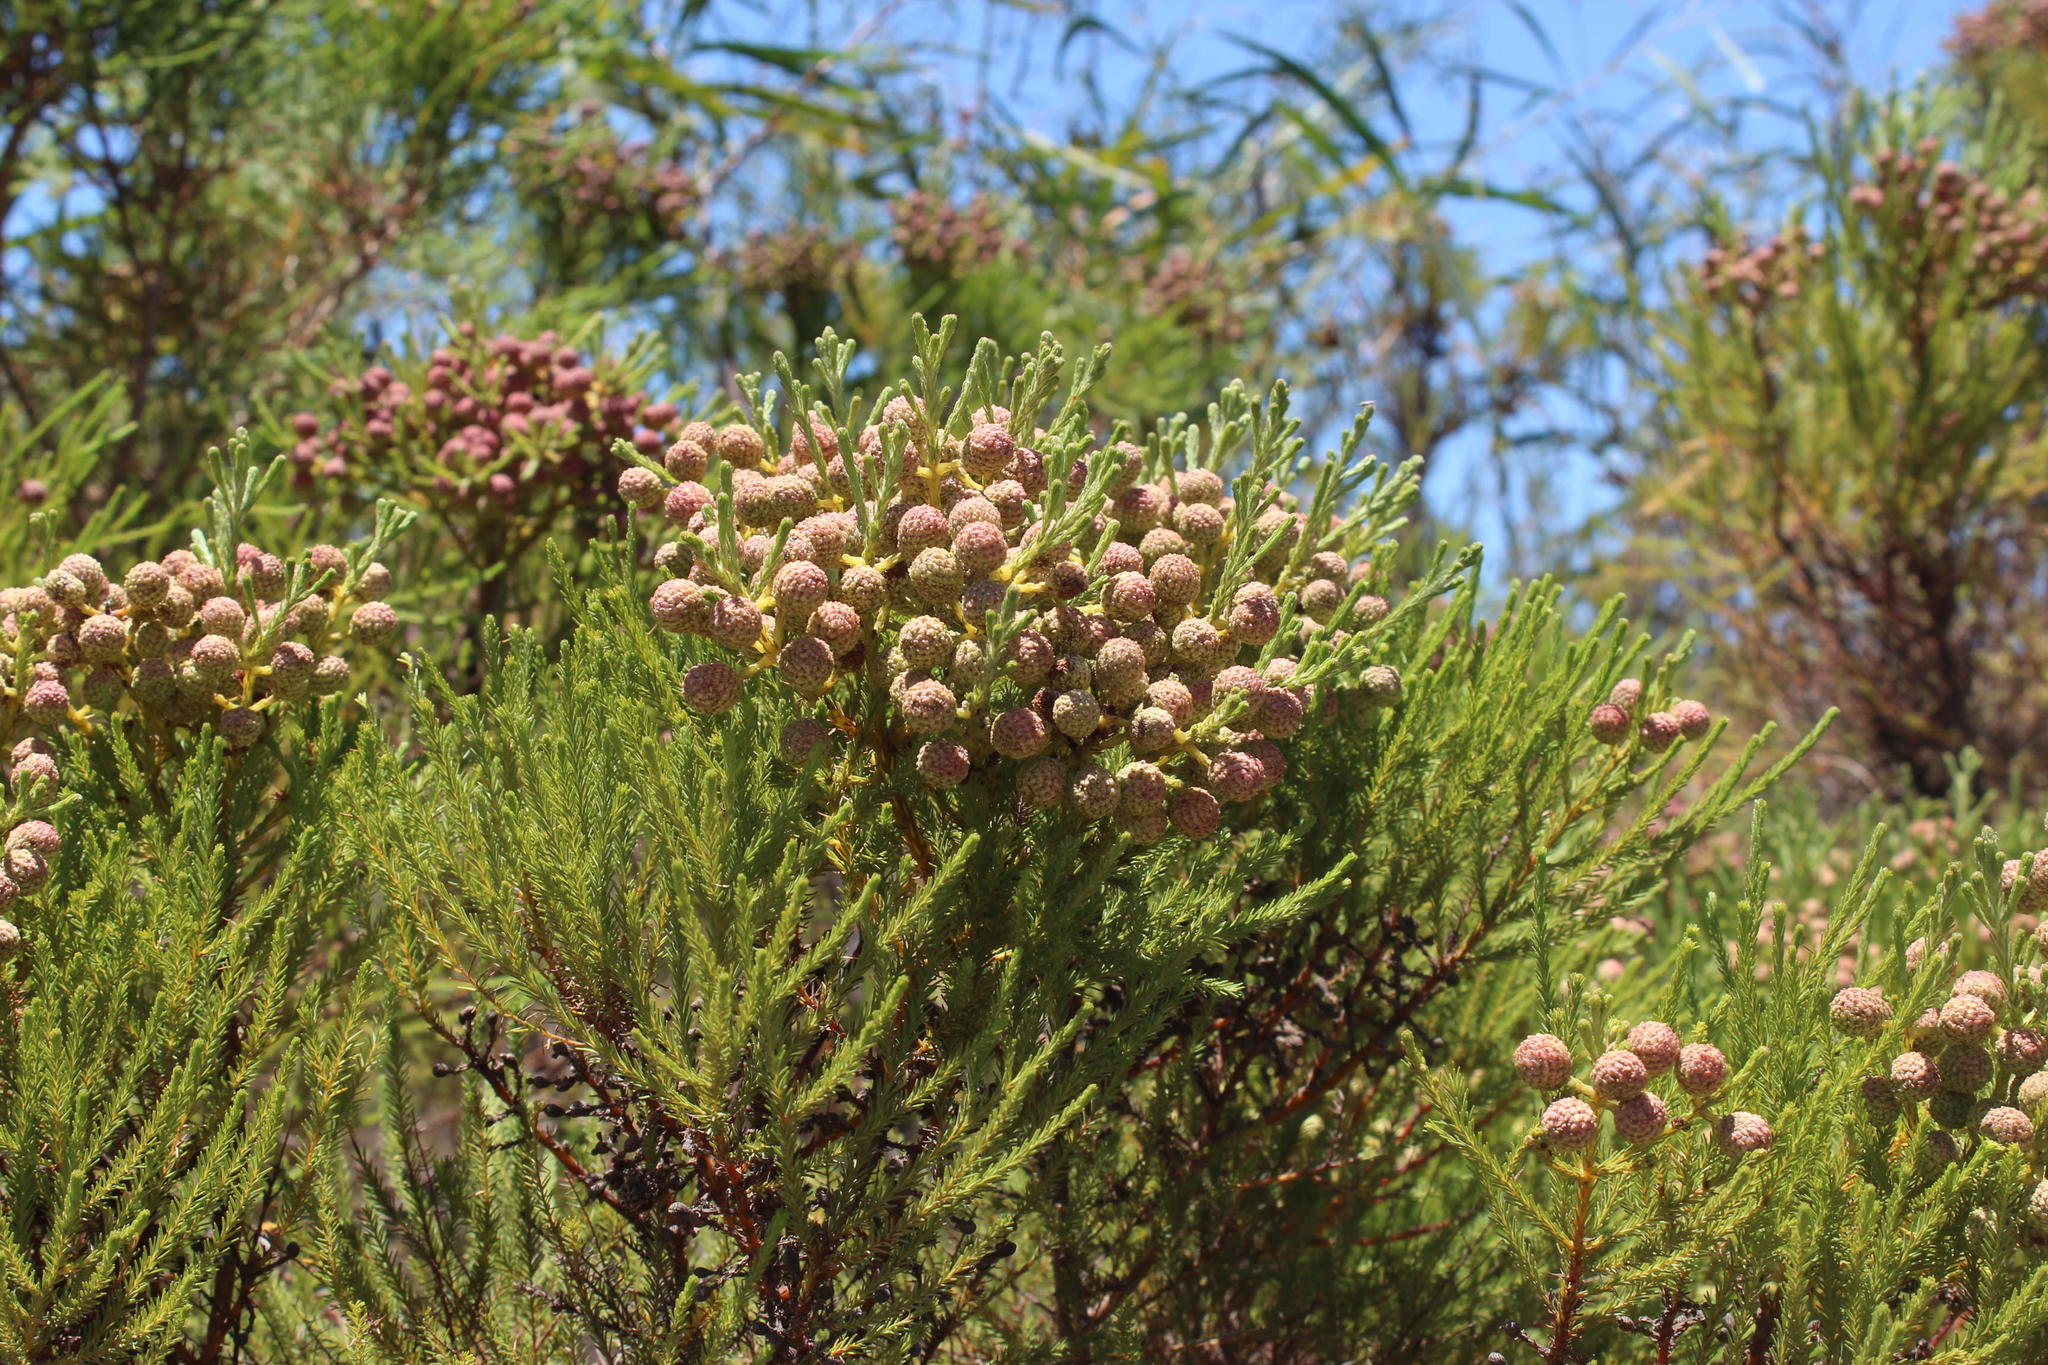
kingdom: Plantae
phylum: Tracheophyta
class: Magnoliopsida
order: Bruniales
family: Bruniaceae
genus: Berzelia
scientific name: Berzelia abrotanoides
